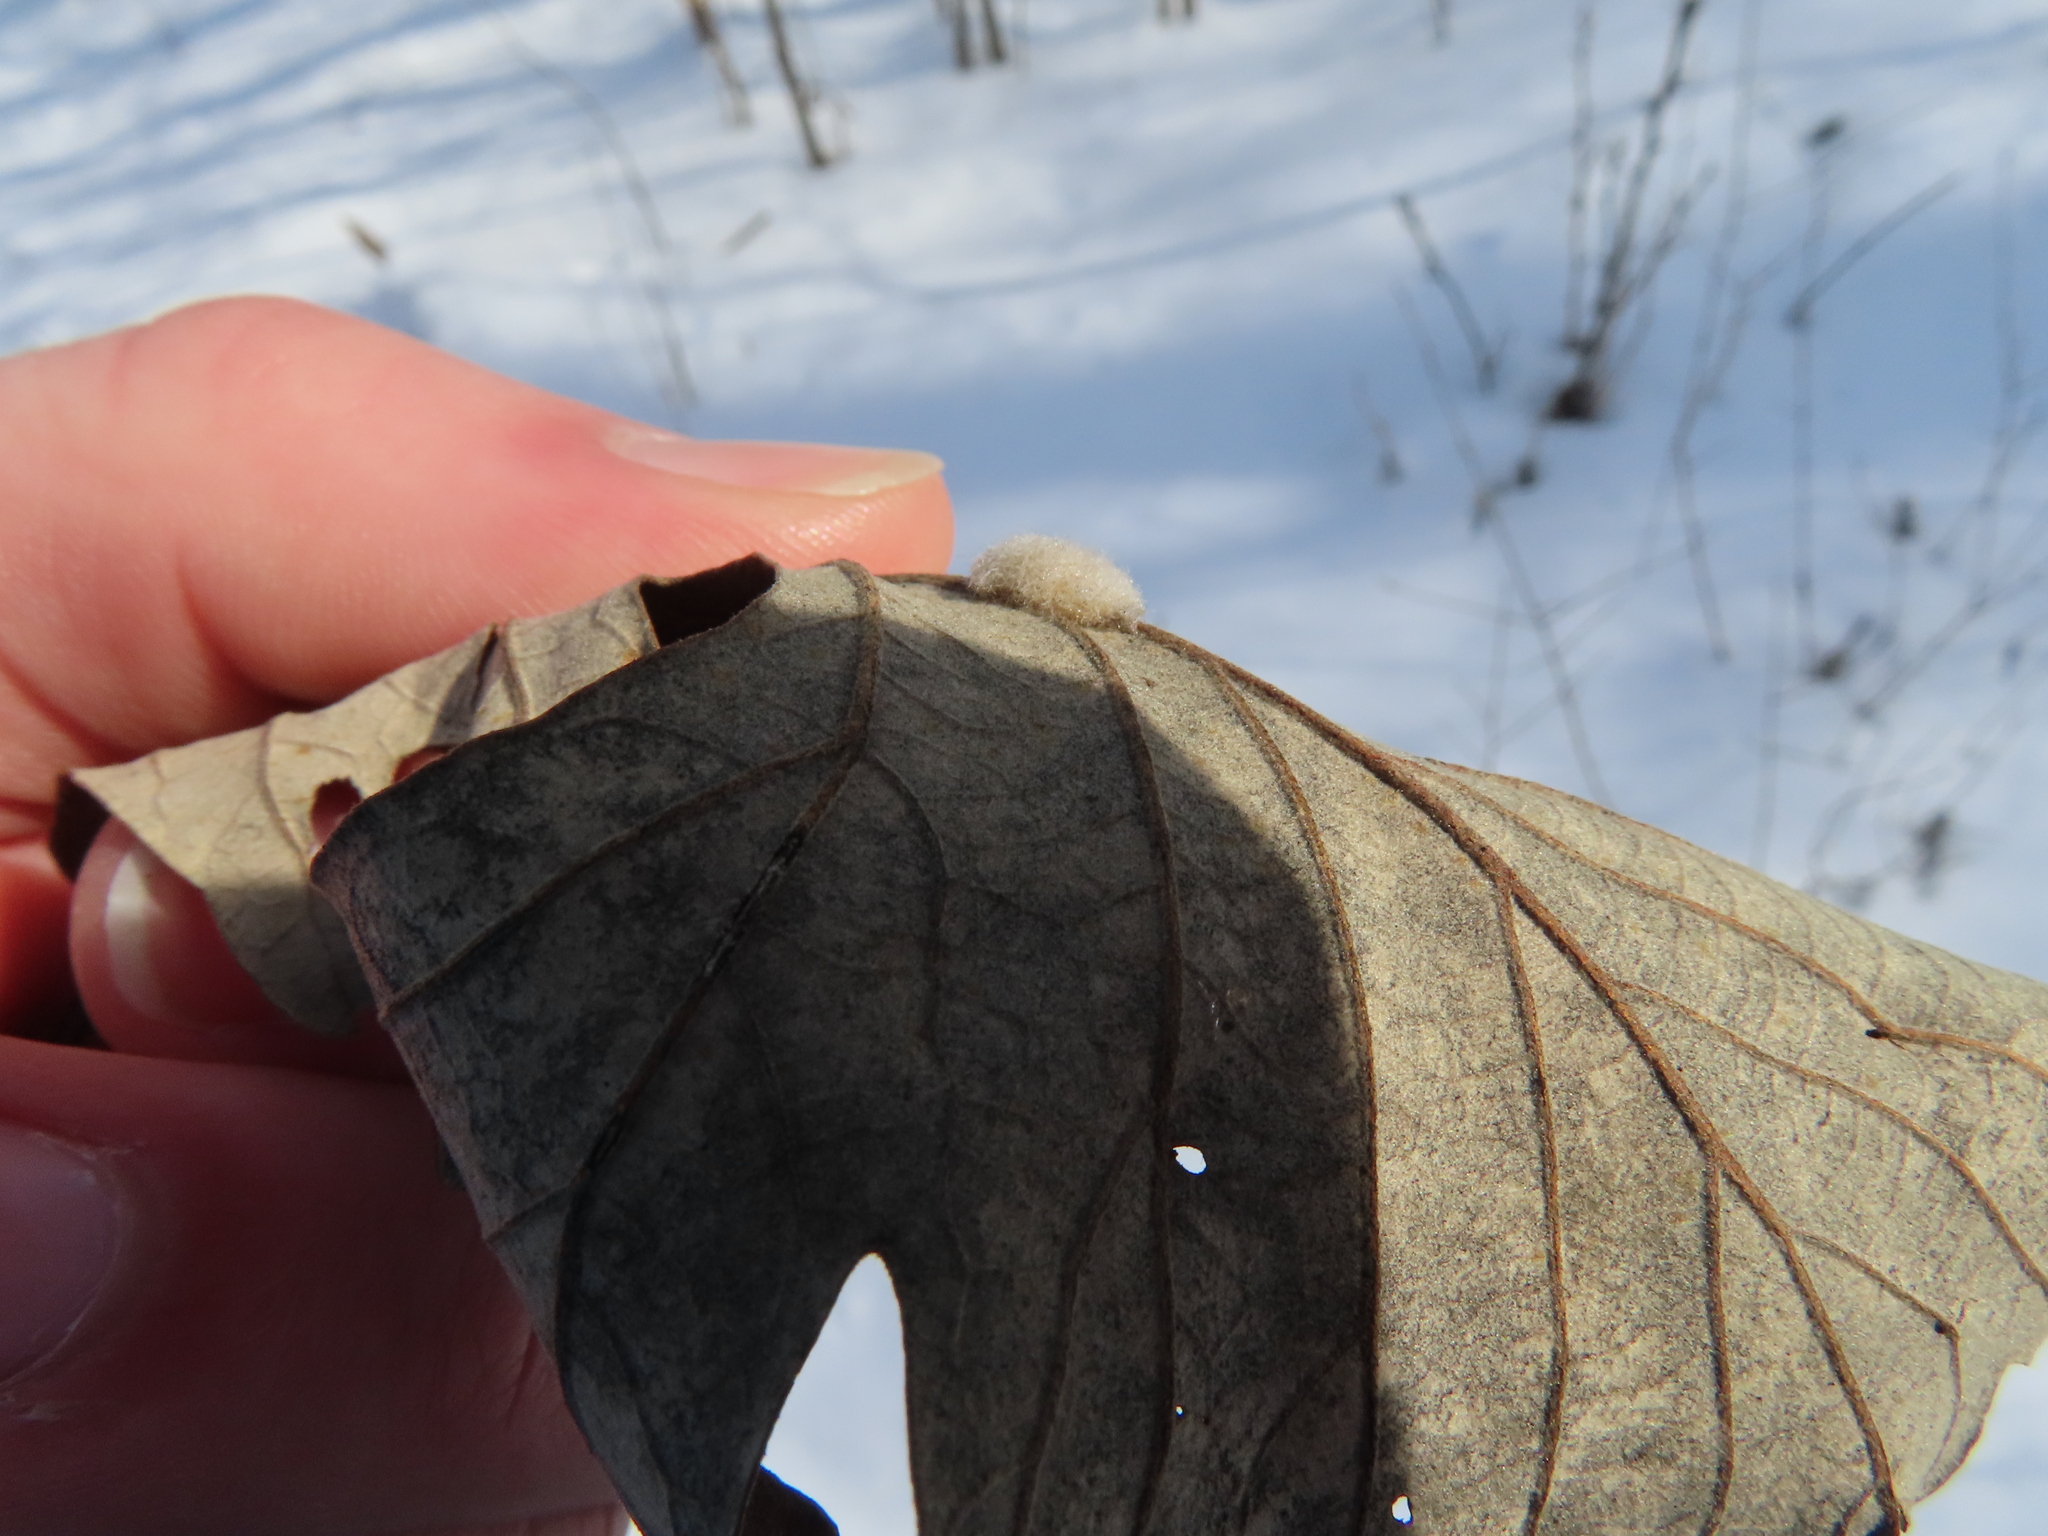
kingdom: Animalia
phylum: Arthropoda
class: Insecta
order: Hymenoptera
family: Cynipidae
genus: Andricus
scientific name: Andricus Druon ignotum
